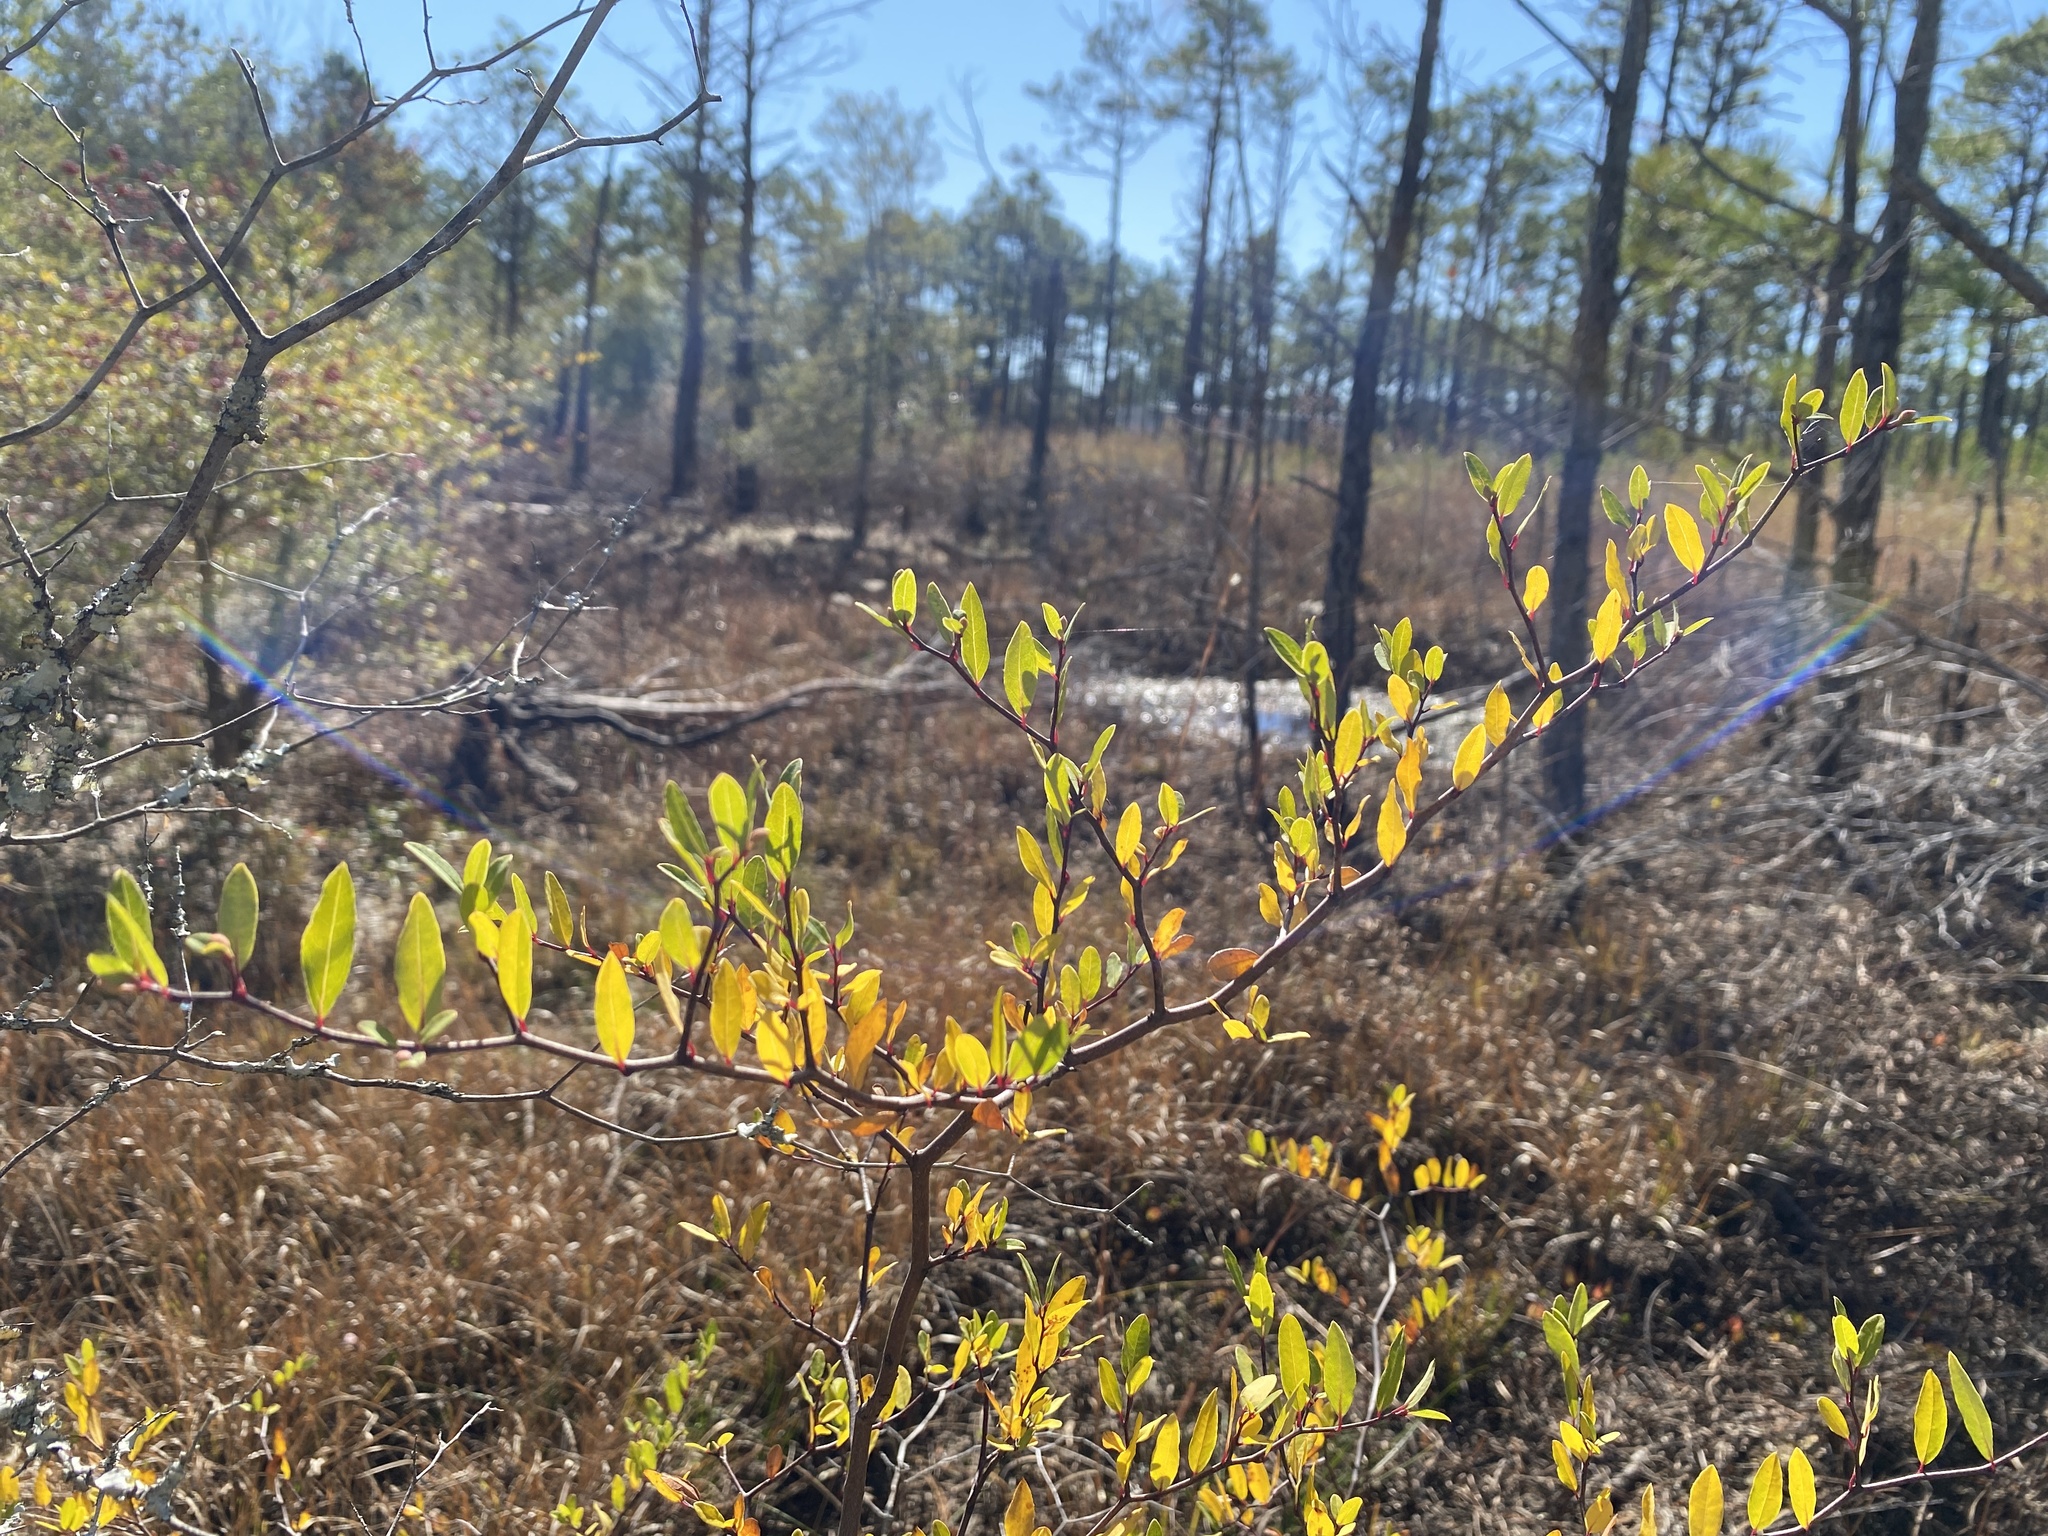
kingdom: Plantae
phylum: Tracheophyta
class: Magnoliopsida
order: Laurales
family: Lauraceae
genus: Litsea
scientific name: Litsea aestivalis
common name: Pondspice
